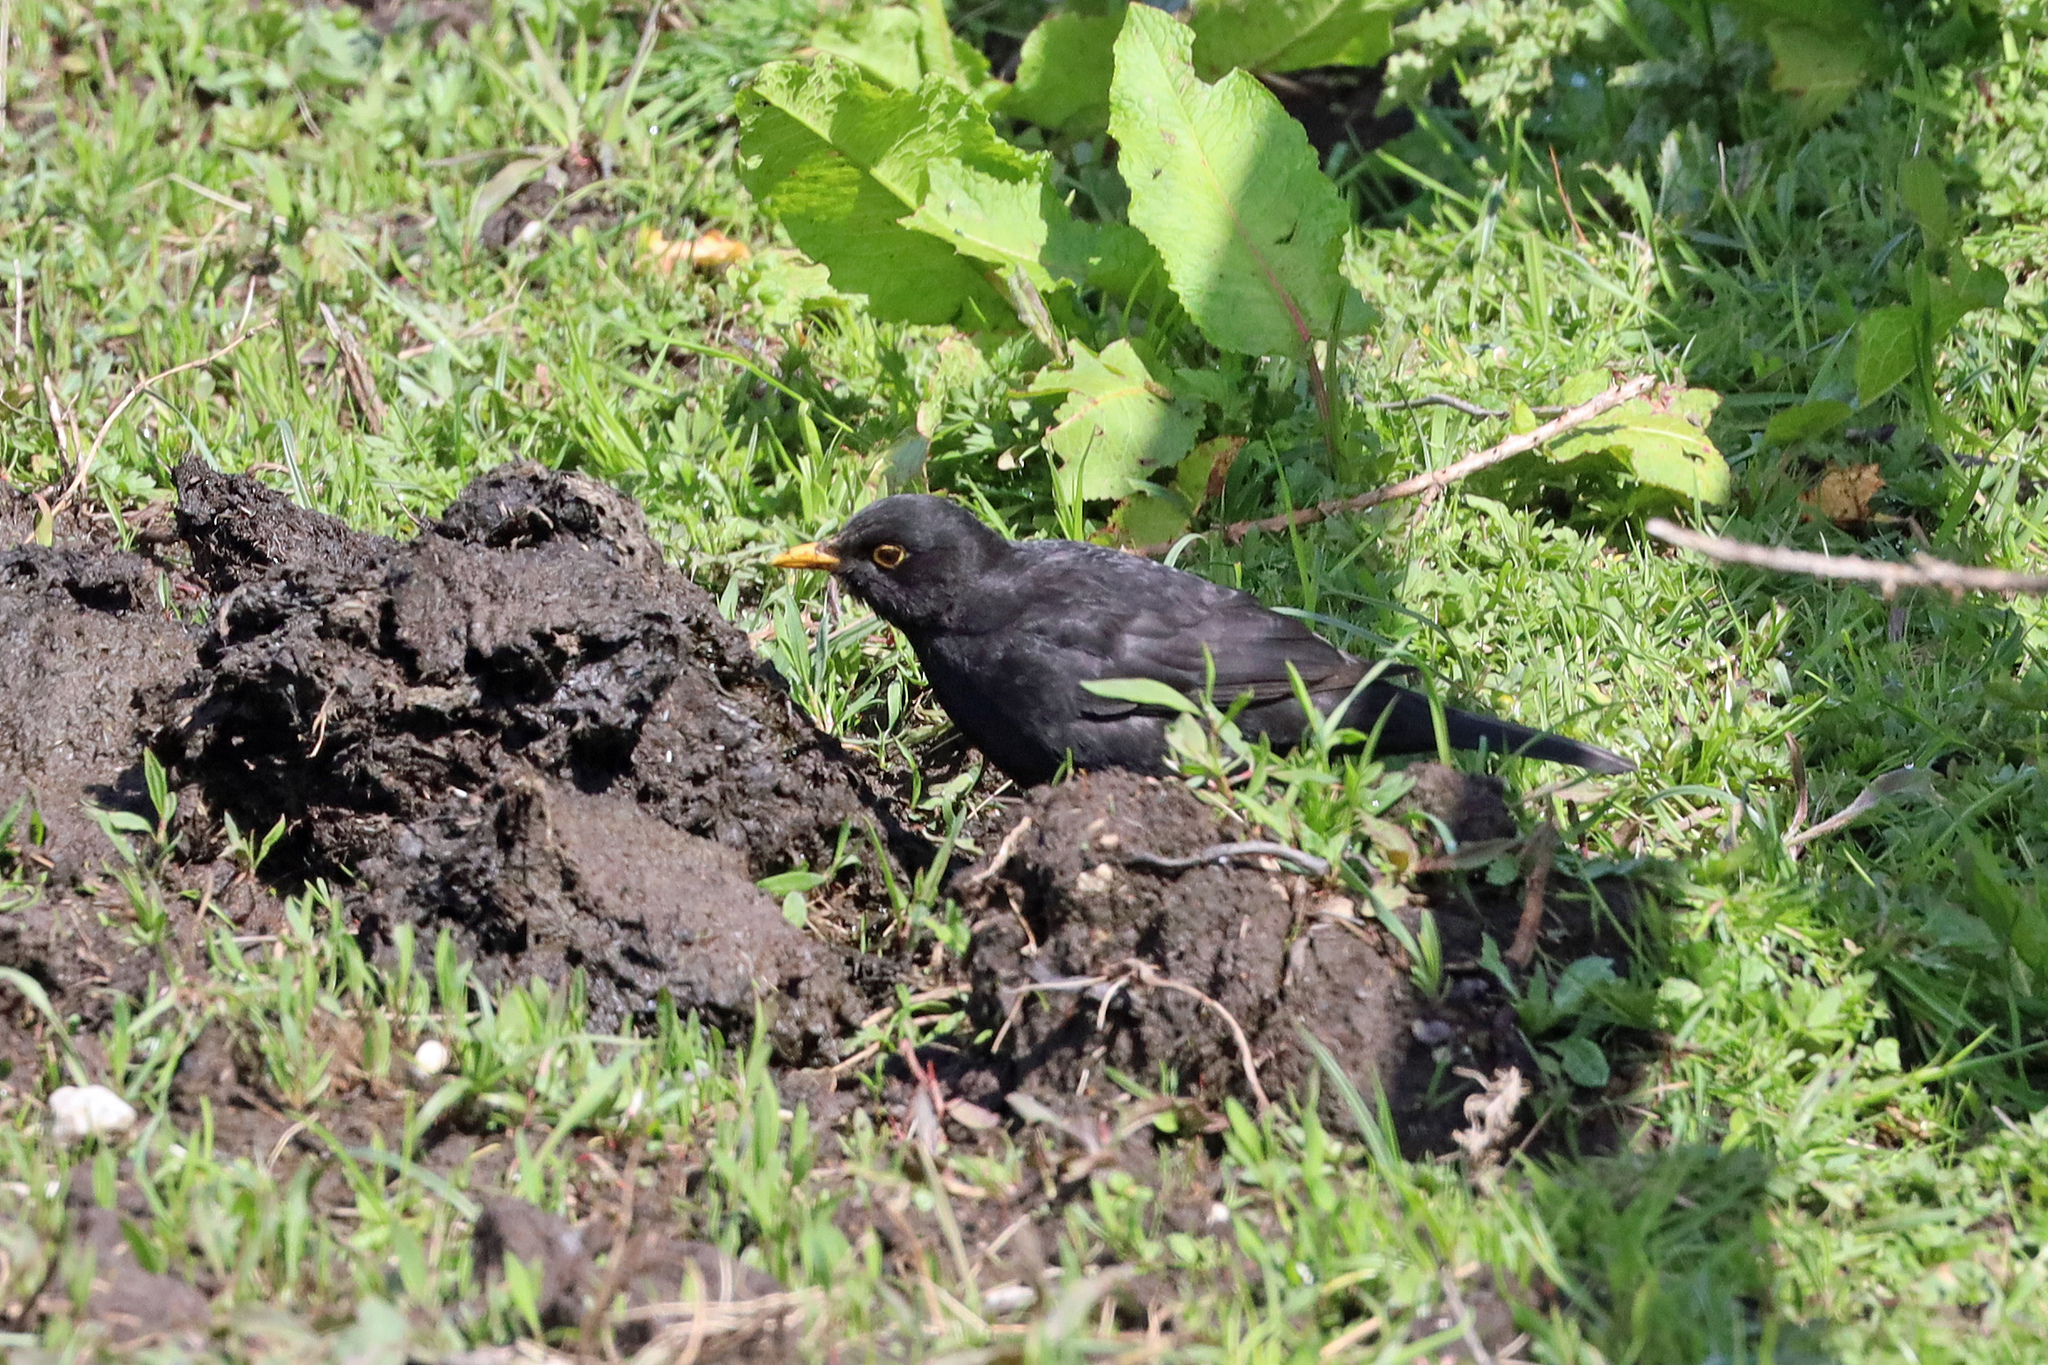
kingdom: Animalia
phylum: Chordata
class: Aves
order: Passeriformes
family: Turdidae
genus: Turdus
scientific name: Turdus merula
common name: Common blackbird
